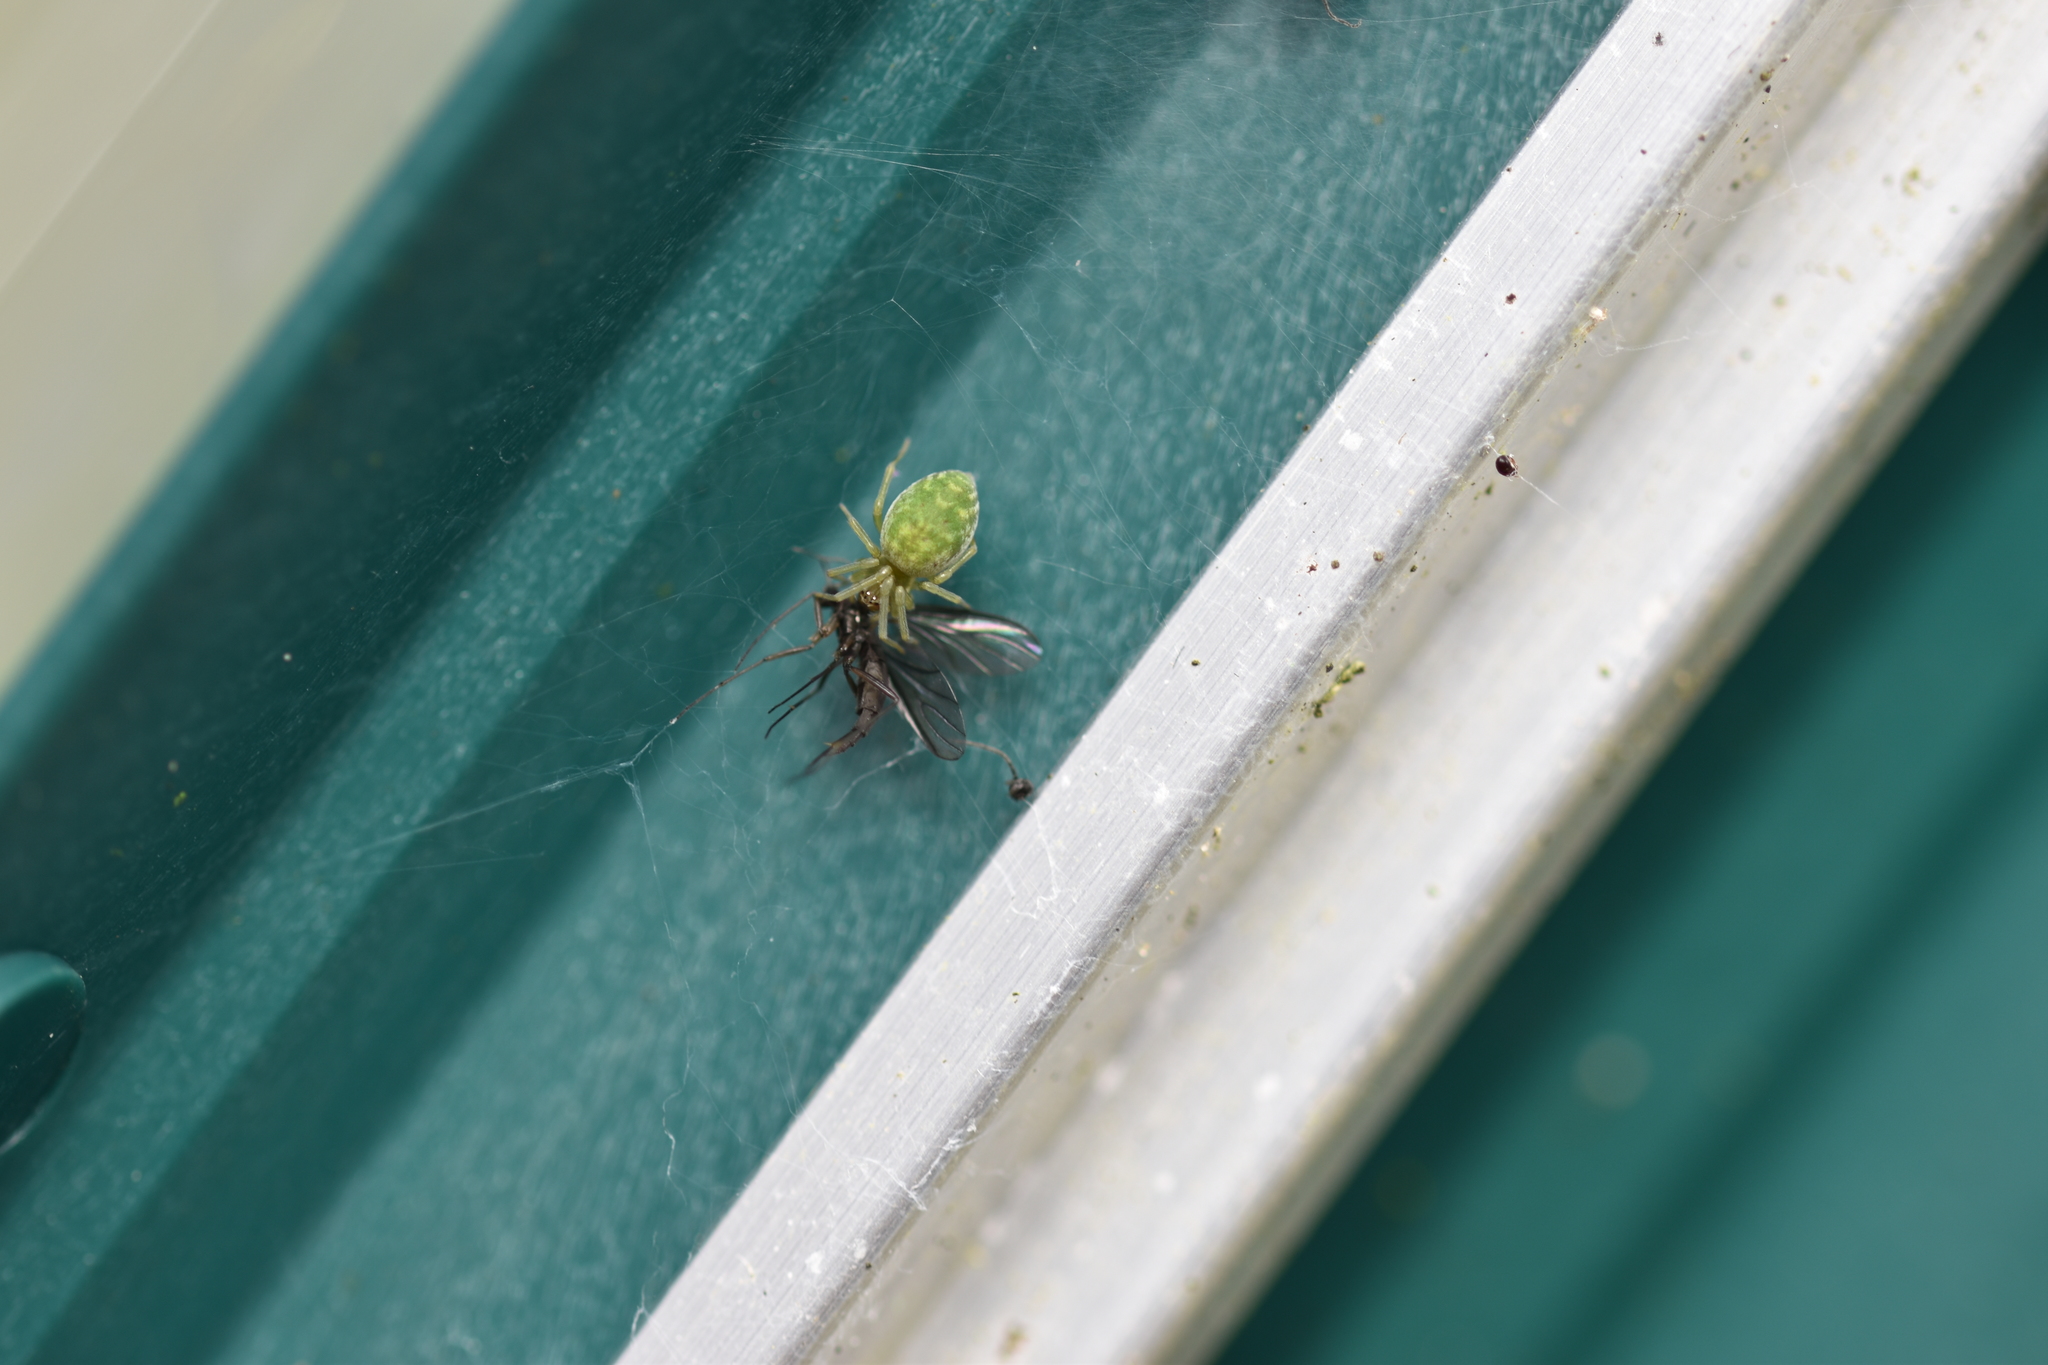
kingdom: Animalia
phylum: Arthropoda
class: Arachnida
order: Araneae
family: Dictynidae
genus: Nigma
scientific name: Nigma walckenaeri
